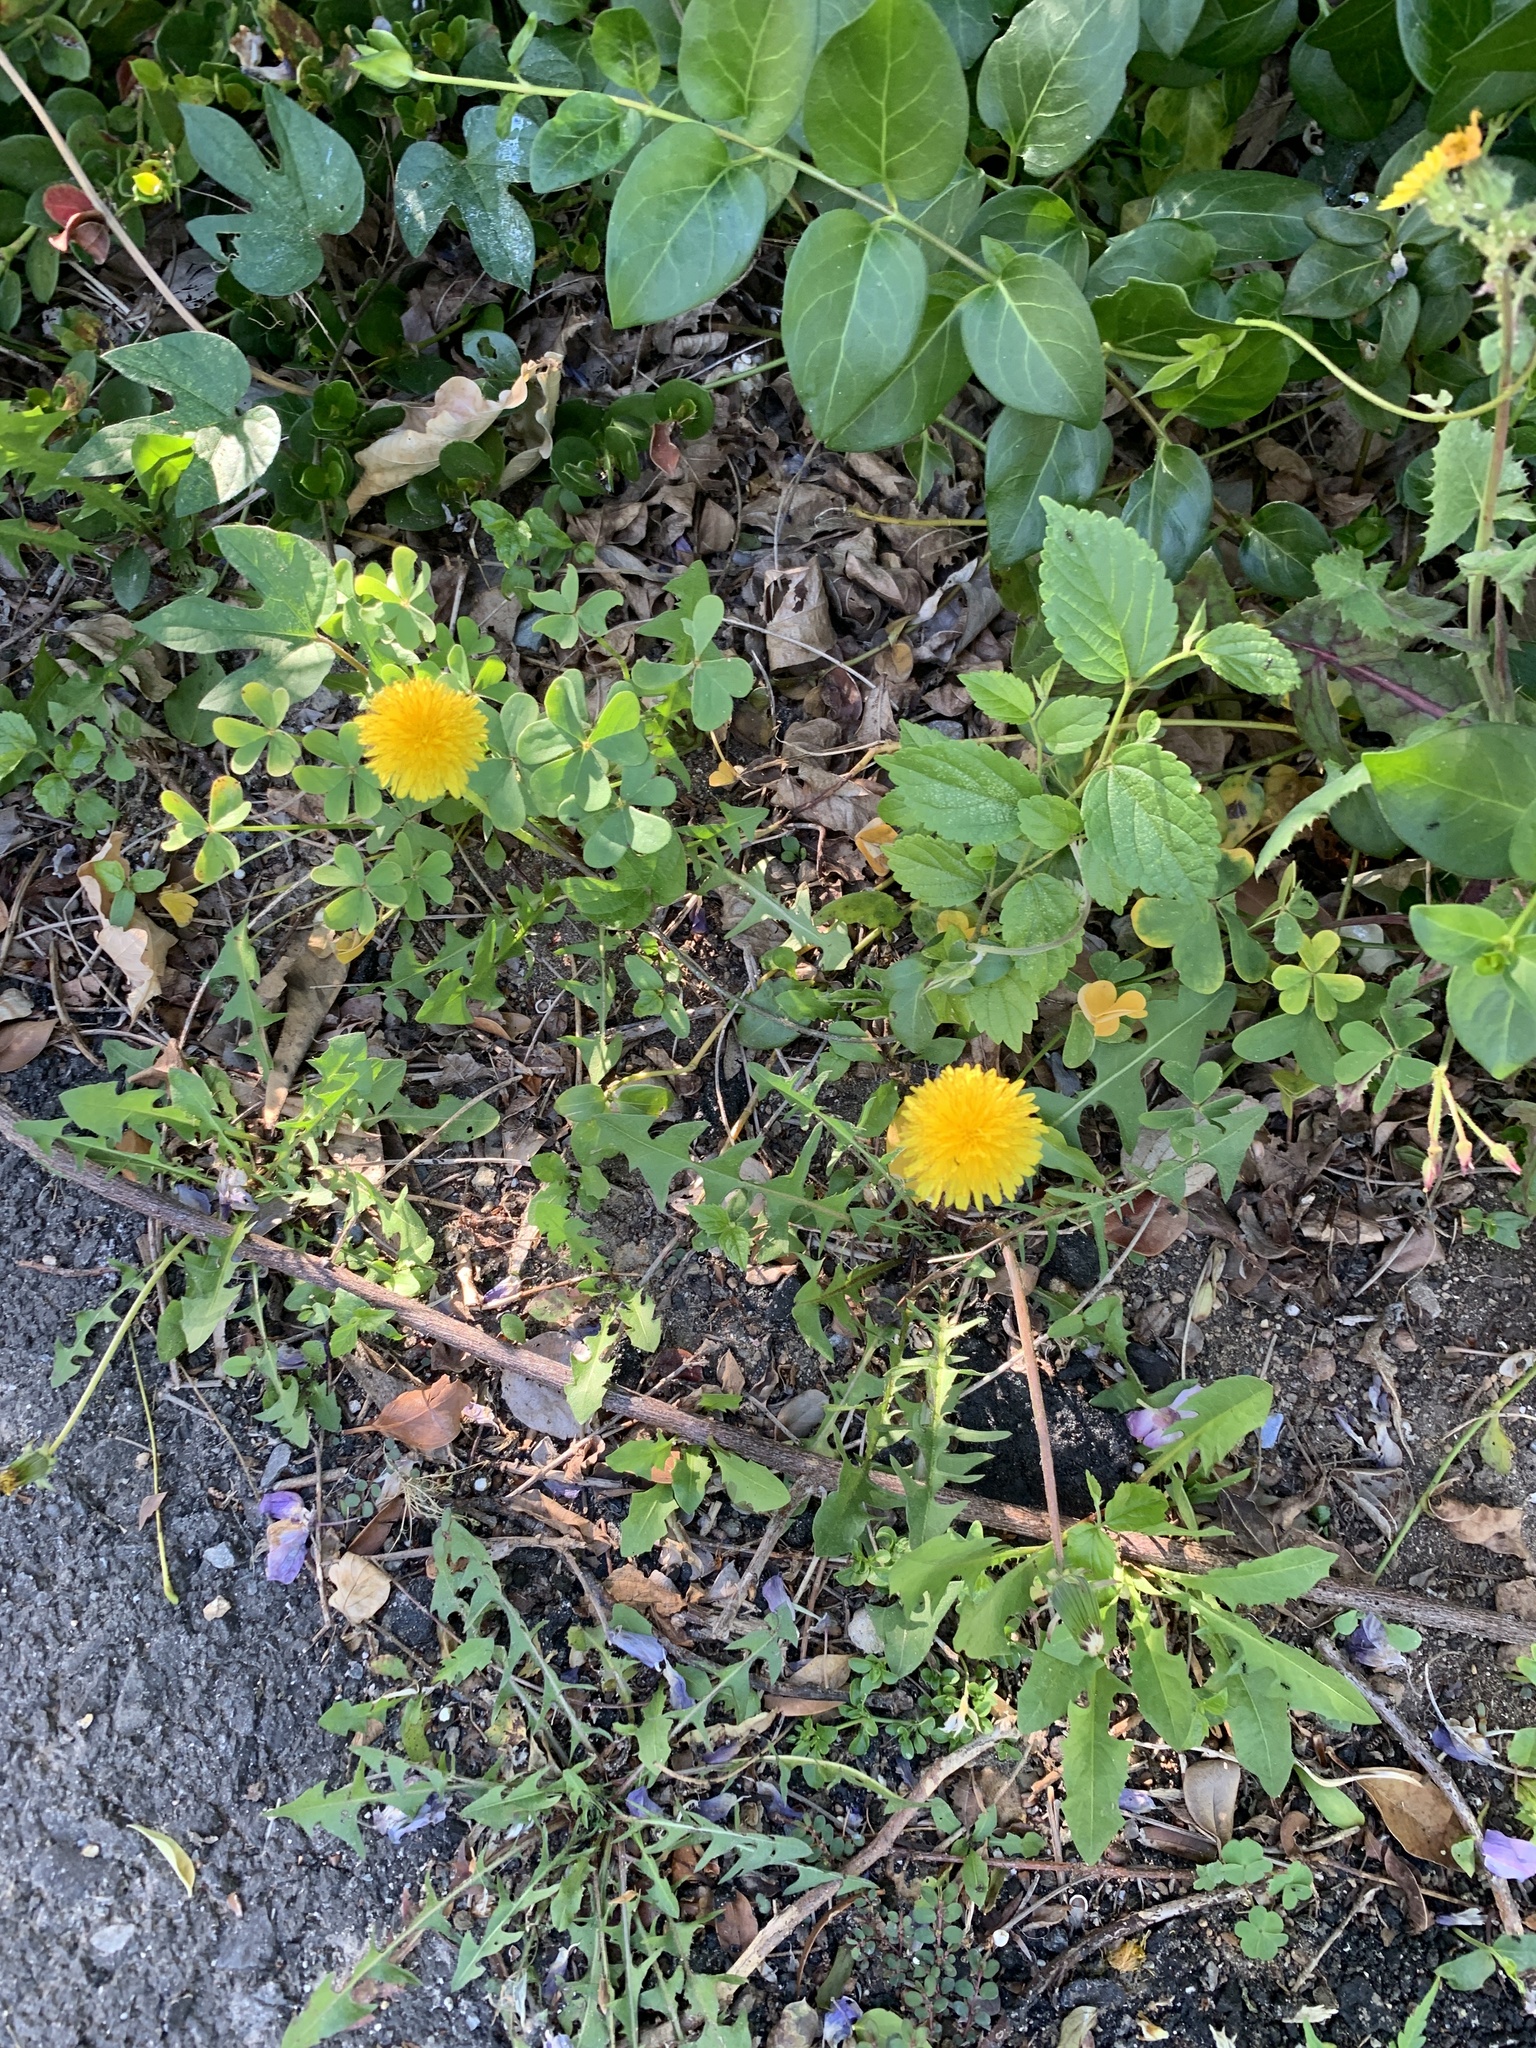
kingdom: Plantae
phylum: Tracheophyta
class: Magnoliopsida
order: Asterales
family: Asteraceae
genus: Taraxacum
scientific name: Taraxacum officinale
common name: Common dandelion
